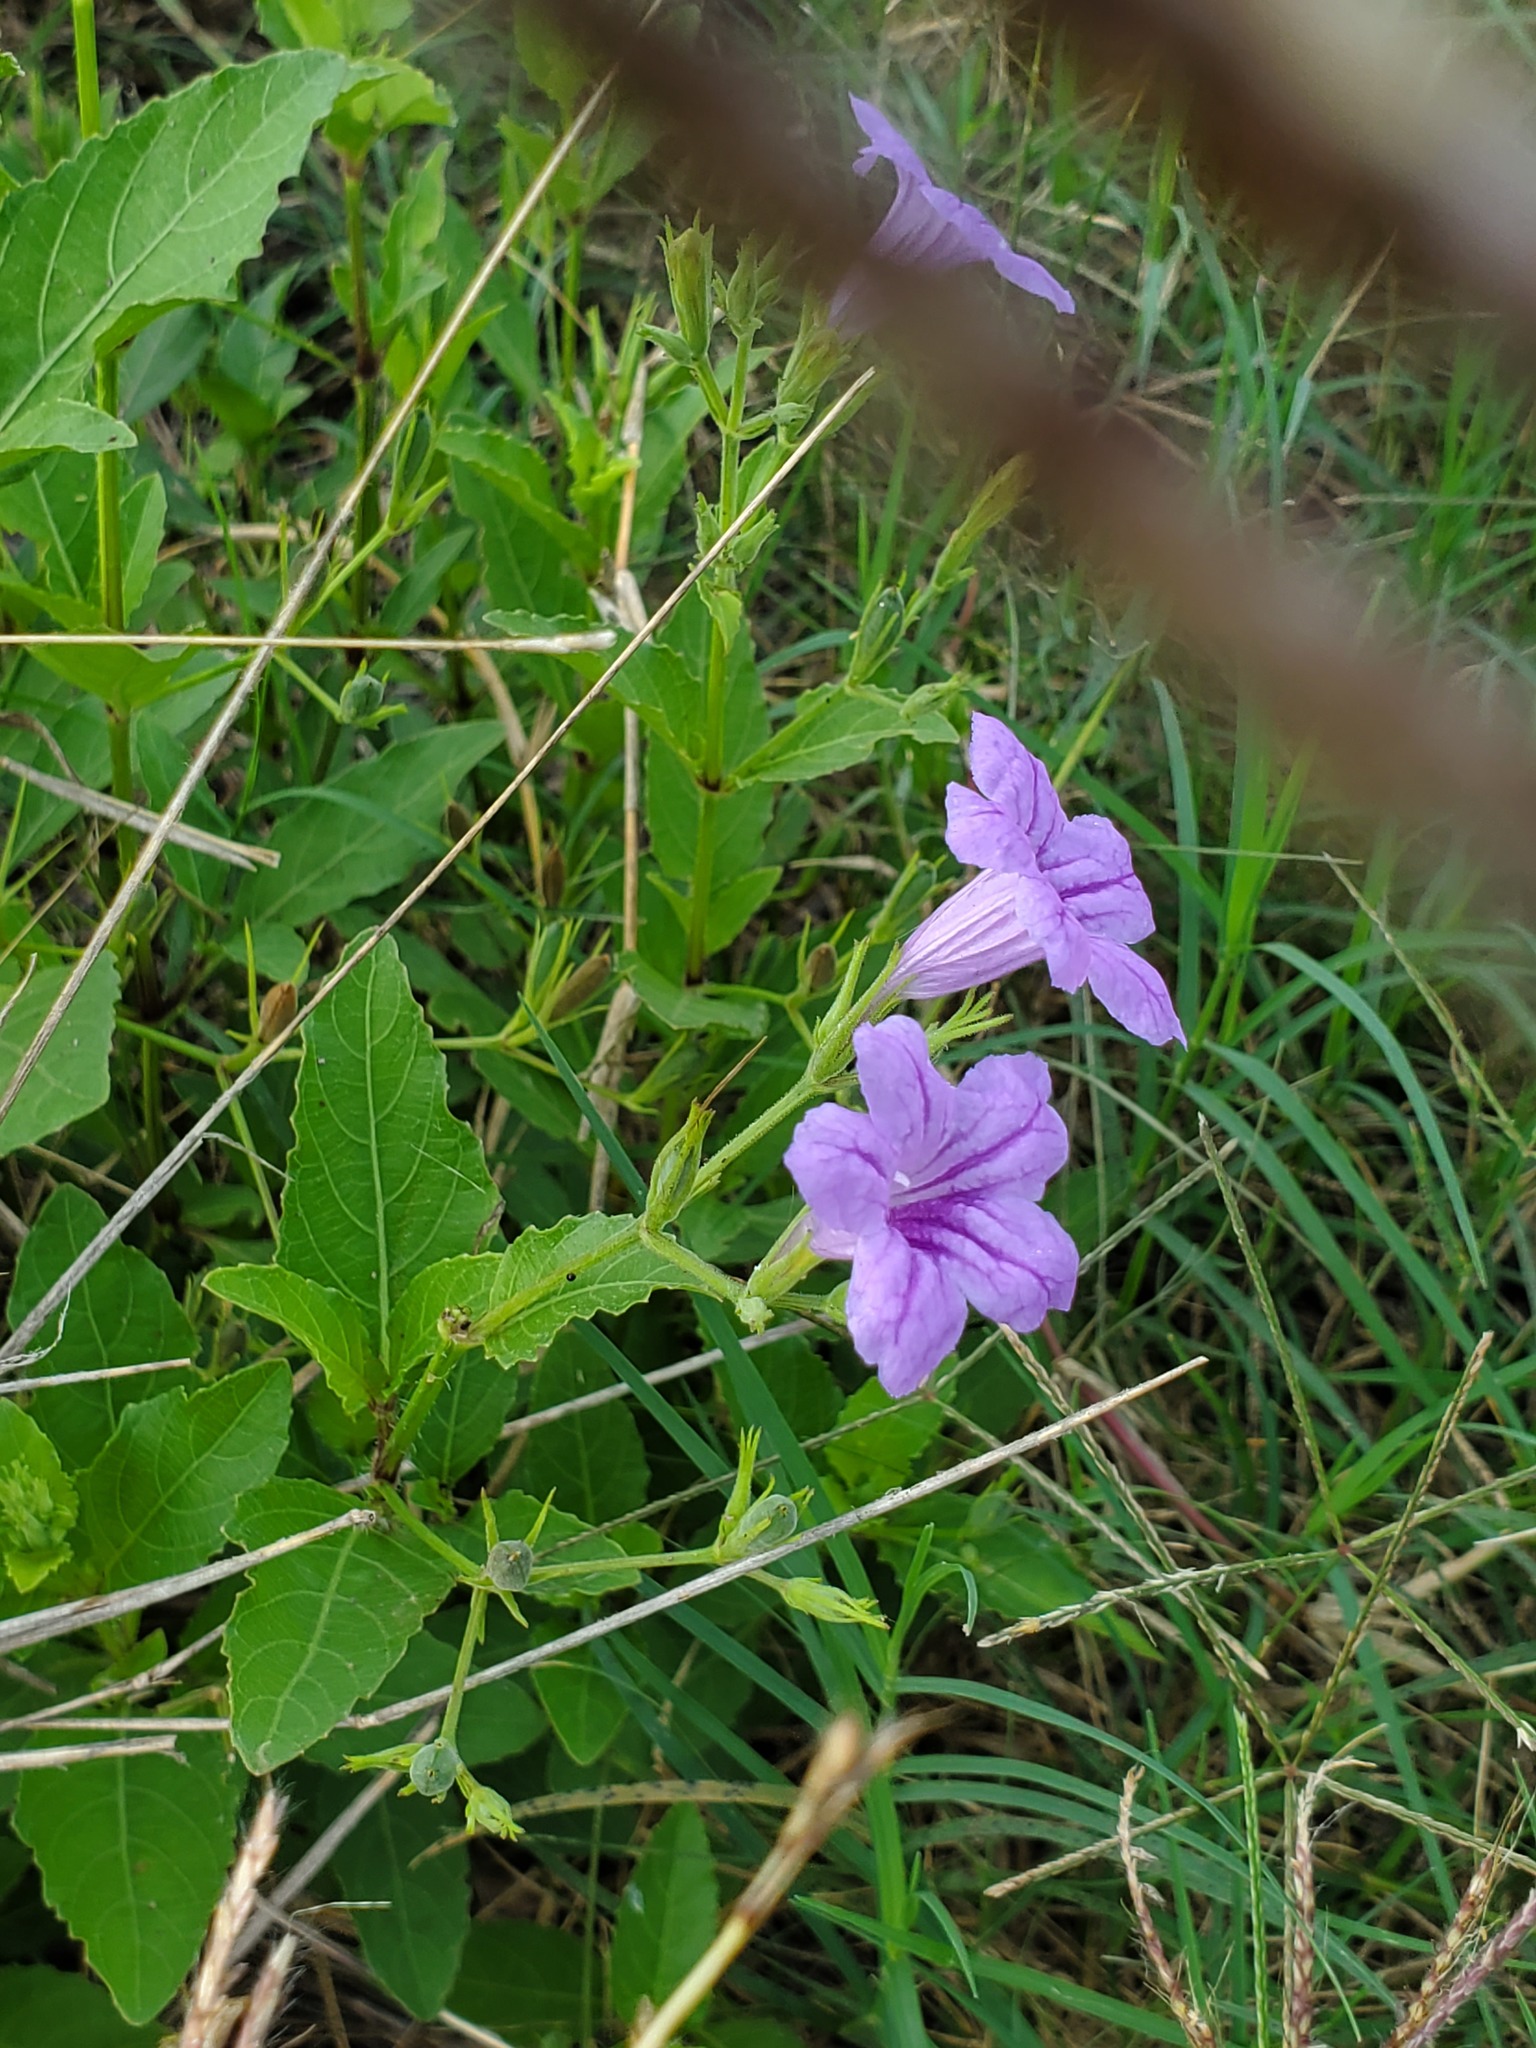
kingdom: Plantae
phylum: Tracheophyta
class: Magnoliopsida
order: Lamiales
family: Acanthaceae
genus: Ruellia
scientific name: Ruellia ciliatiflora
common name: Hairyflower wild petunia
